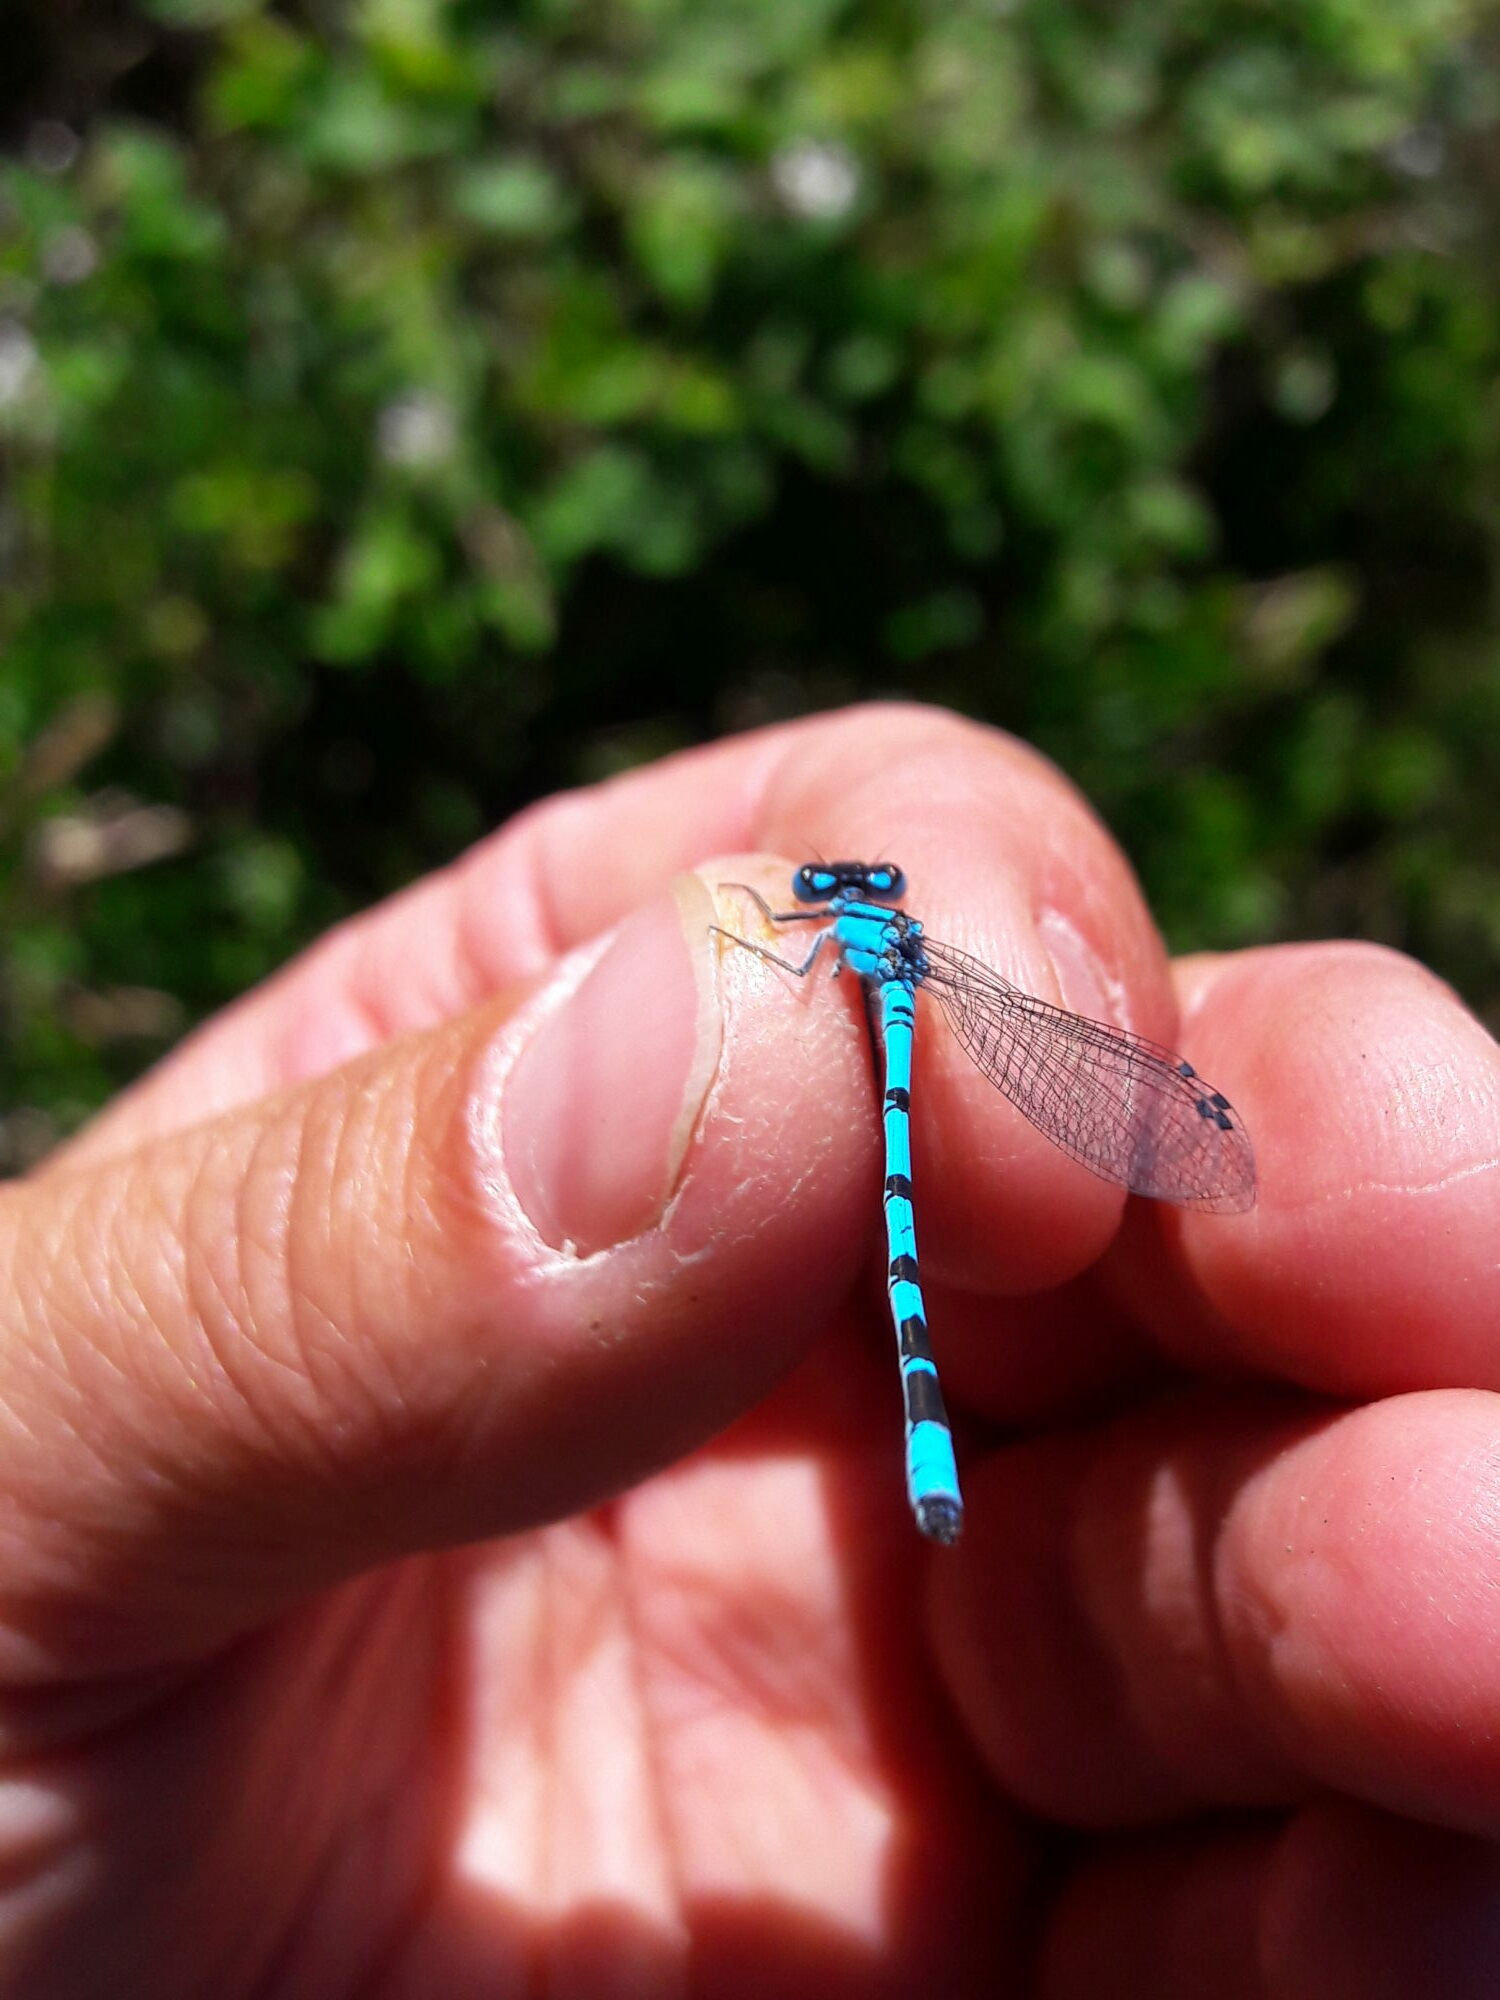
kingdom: Animalia
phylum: Arthropoda
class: Insecta
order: Odonata
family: Coenagrionidae
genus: Enallagma
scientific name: Enallagma cyathigerum
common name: Common blue damselfly
